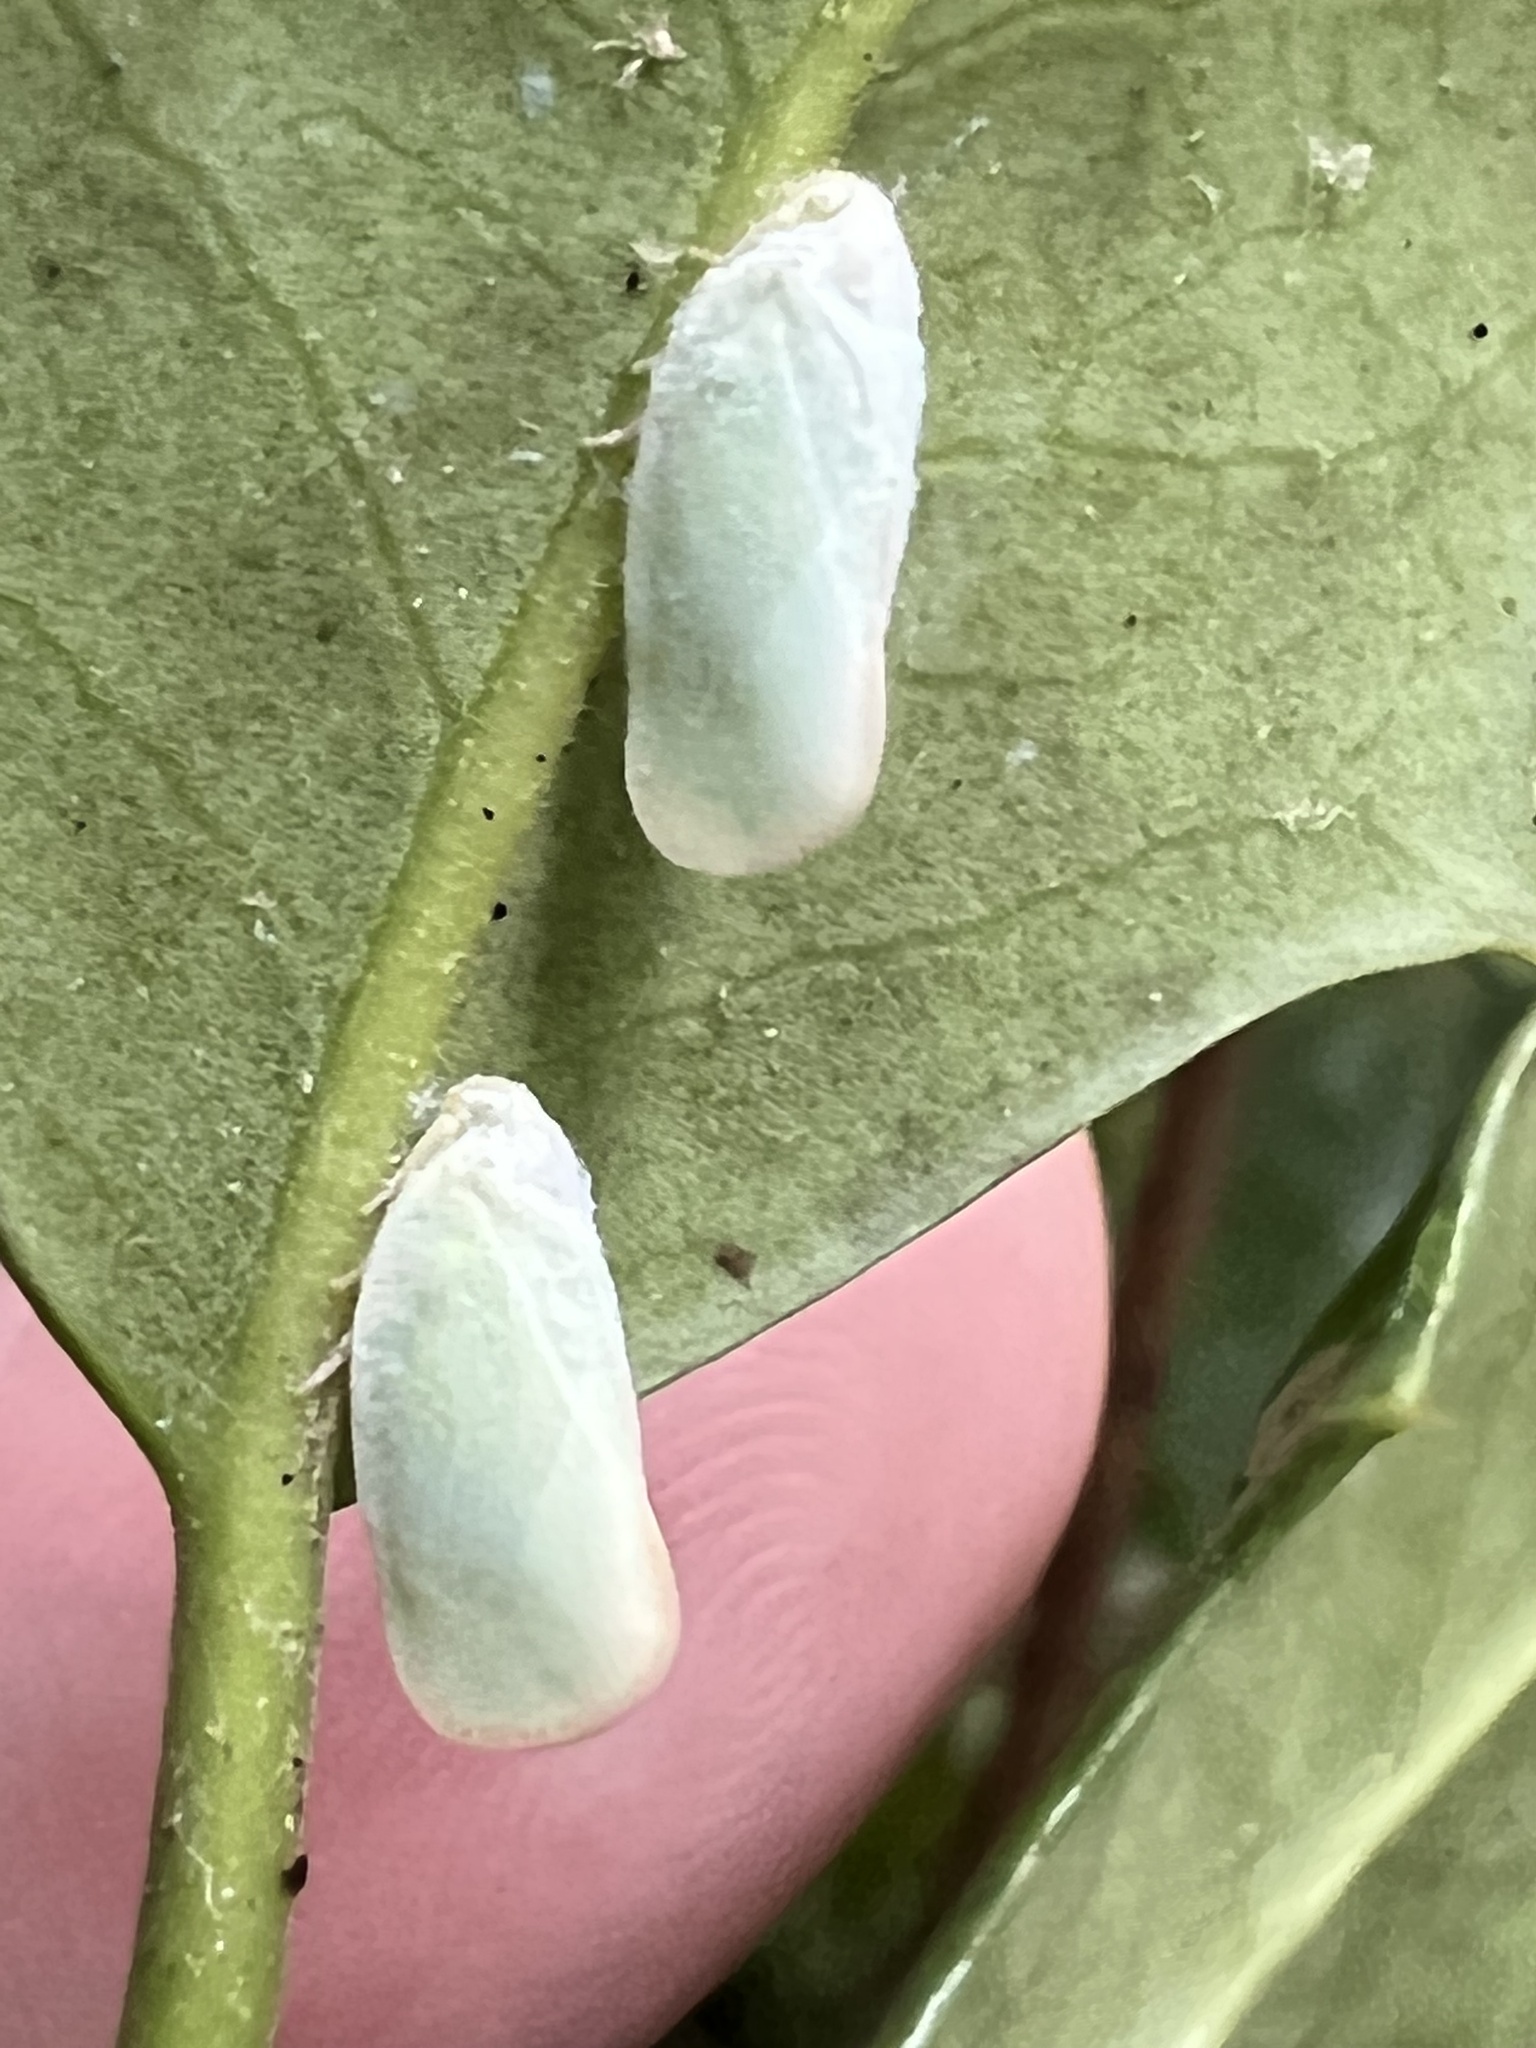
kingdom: Animalia
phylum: Arthropoda
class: Insecta
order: Hemiptera
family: Flatidae
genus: Ormenoides
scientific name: Ormenoides venusta
